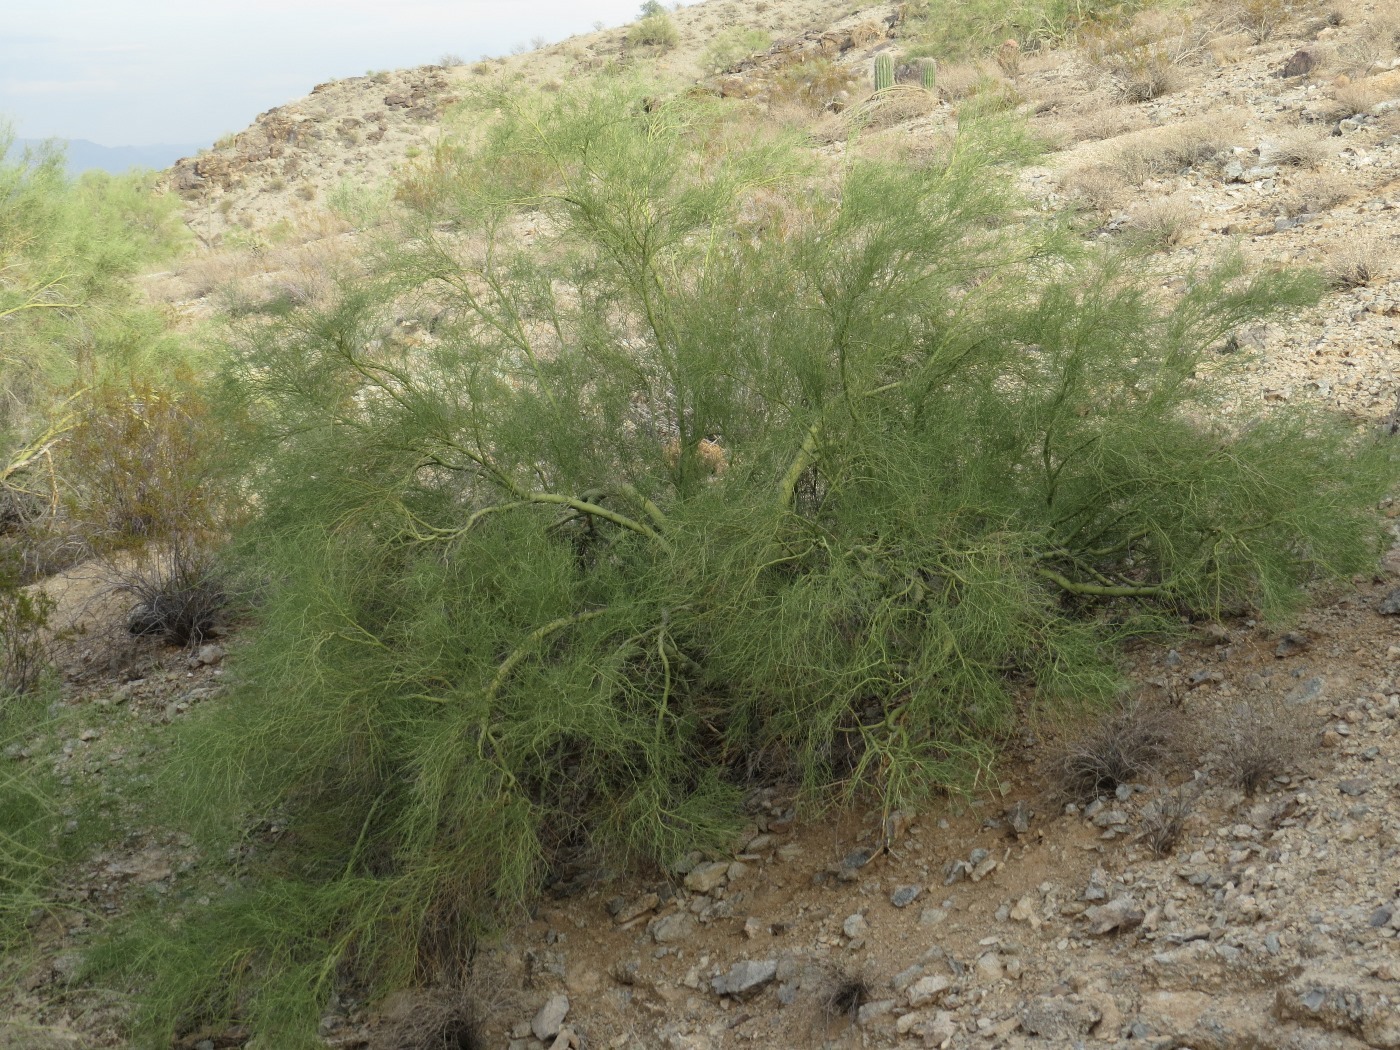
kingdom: Plantae
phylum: Tracheophyta
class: Magnoliopsida
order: Fabales
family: Fabaceae
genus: Parkinsonia
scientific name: Parkinsonia microphylla
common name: Yellow paloverde
